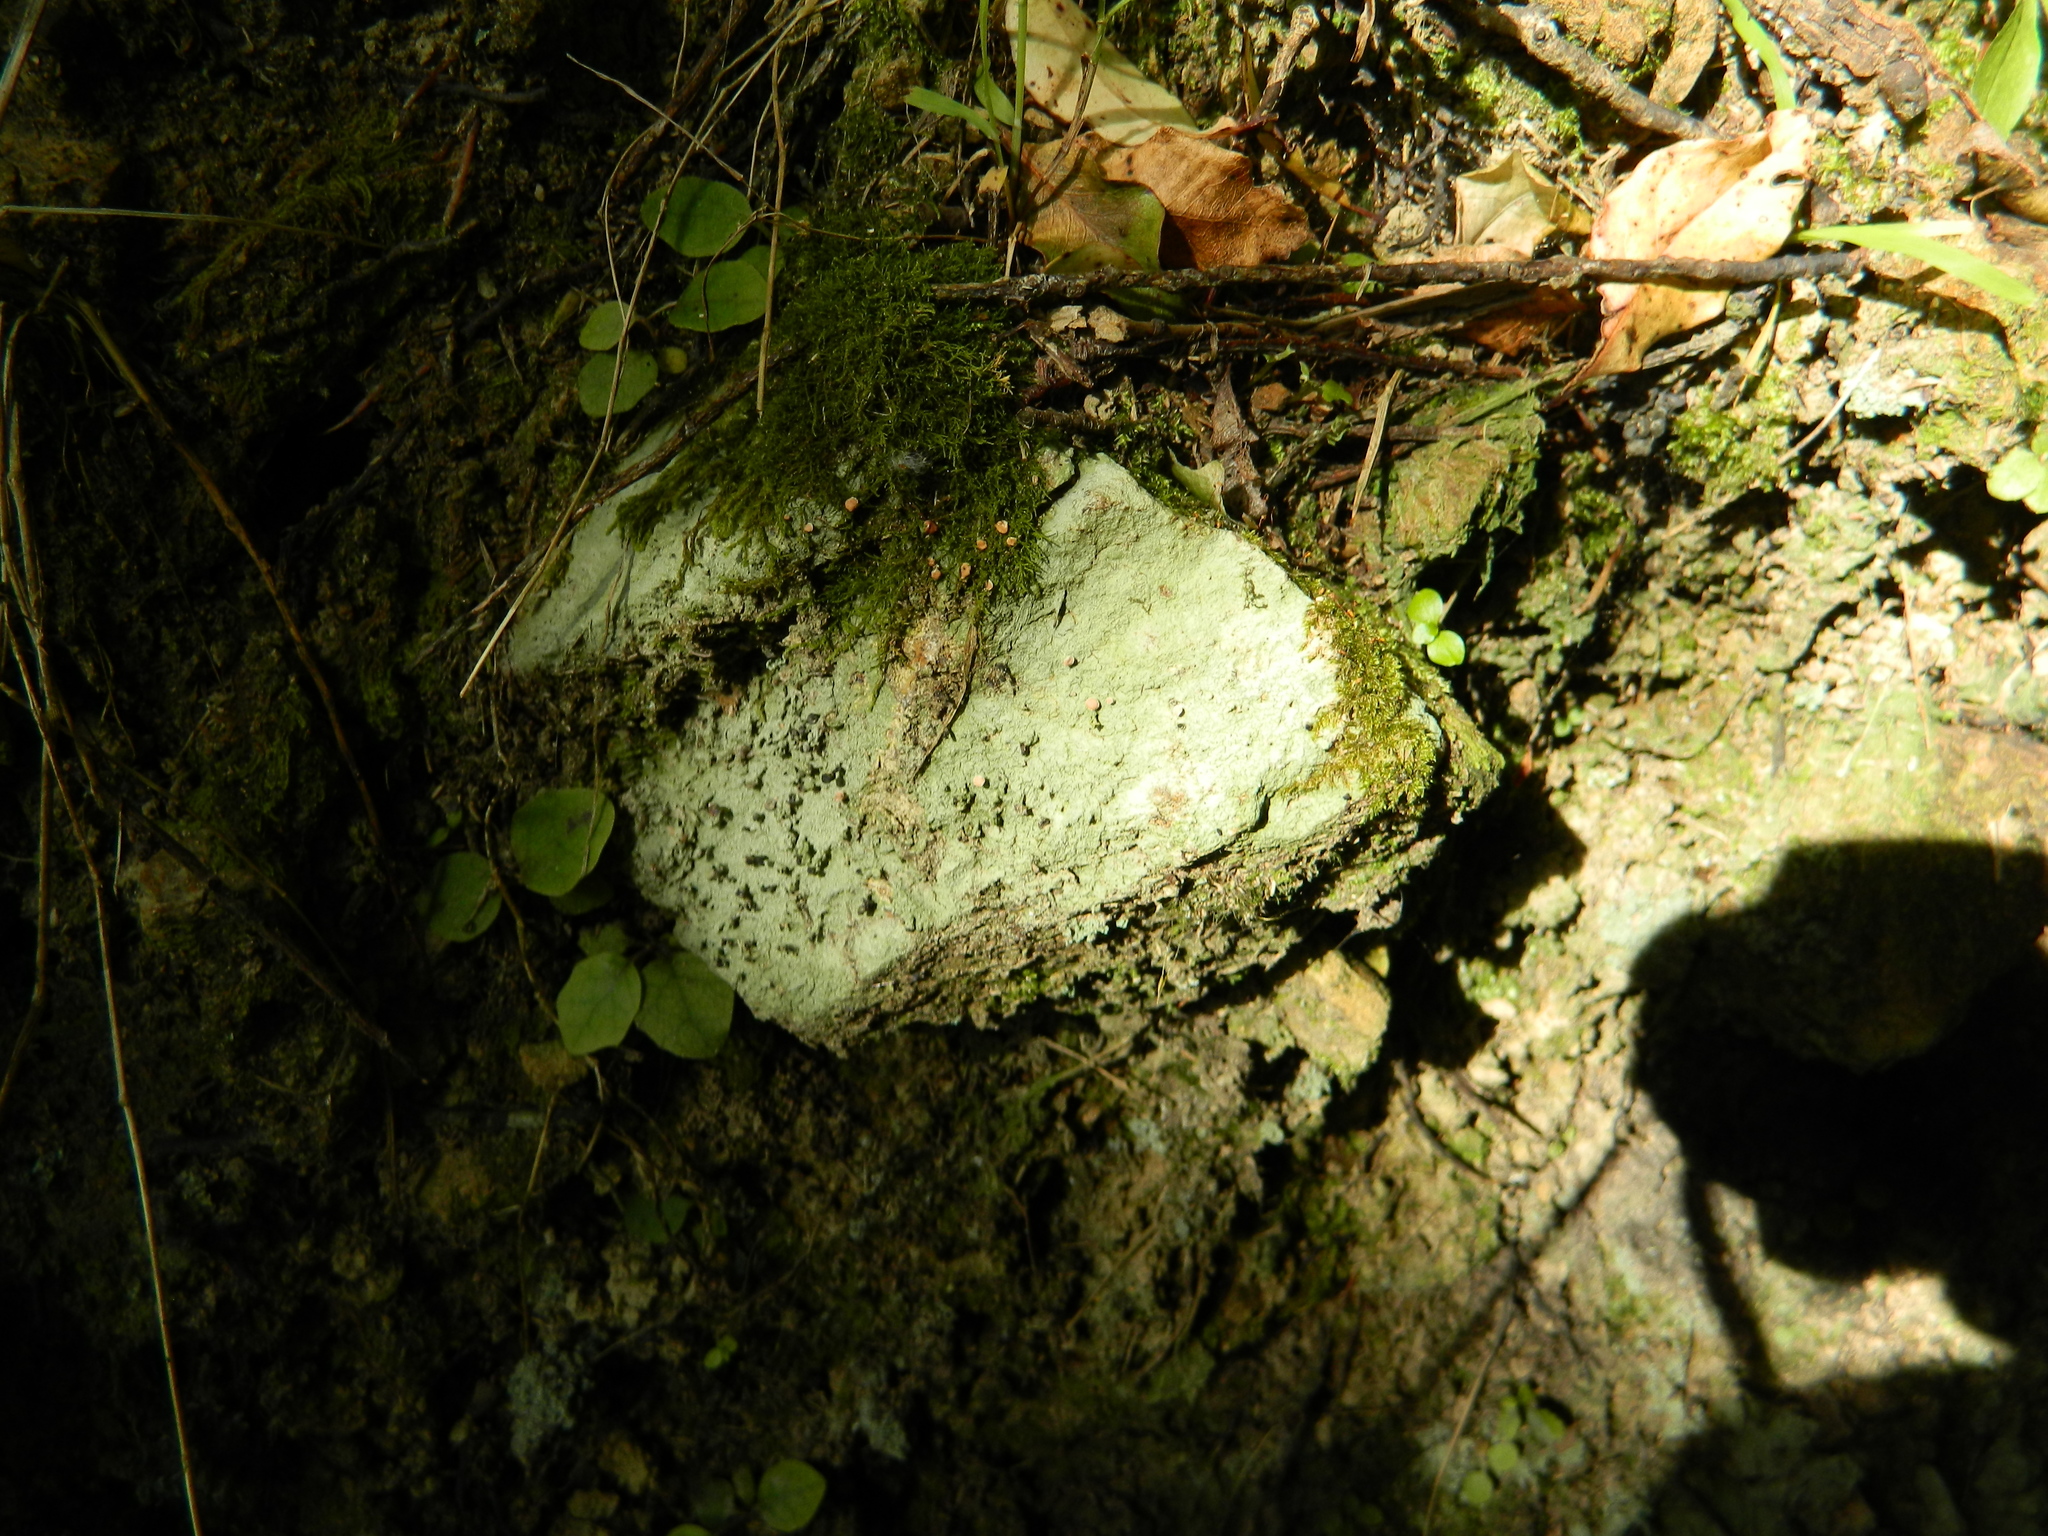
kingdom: Fungi
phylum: Ascomycota
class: Lecanoromycetes
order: Baeomycetales
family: Baeomycetaceae
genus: Baeomyces
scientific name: Baeomyces heteromorphus
